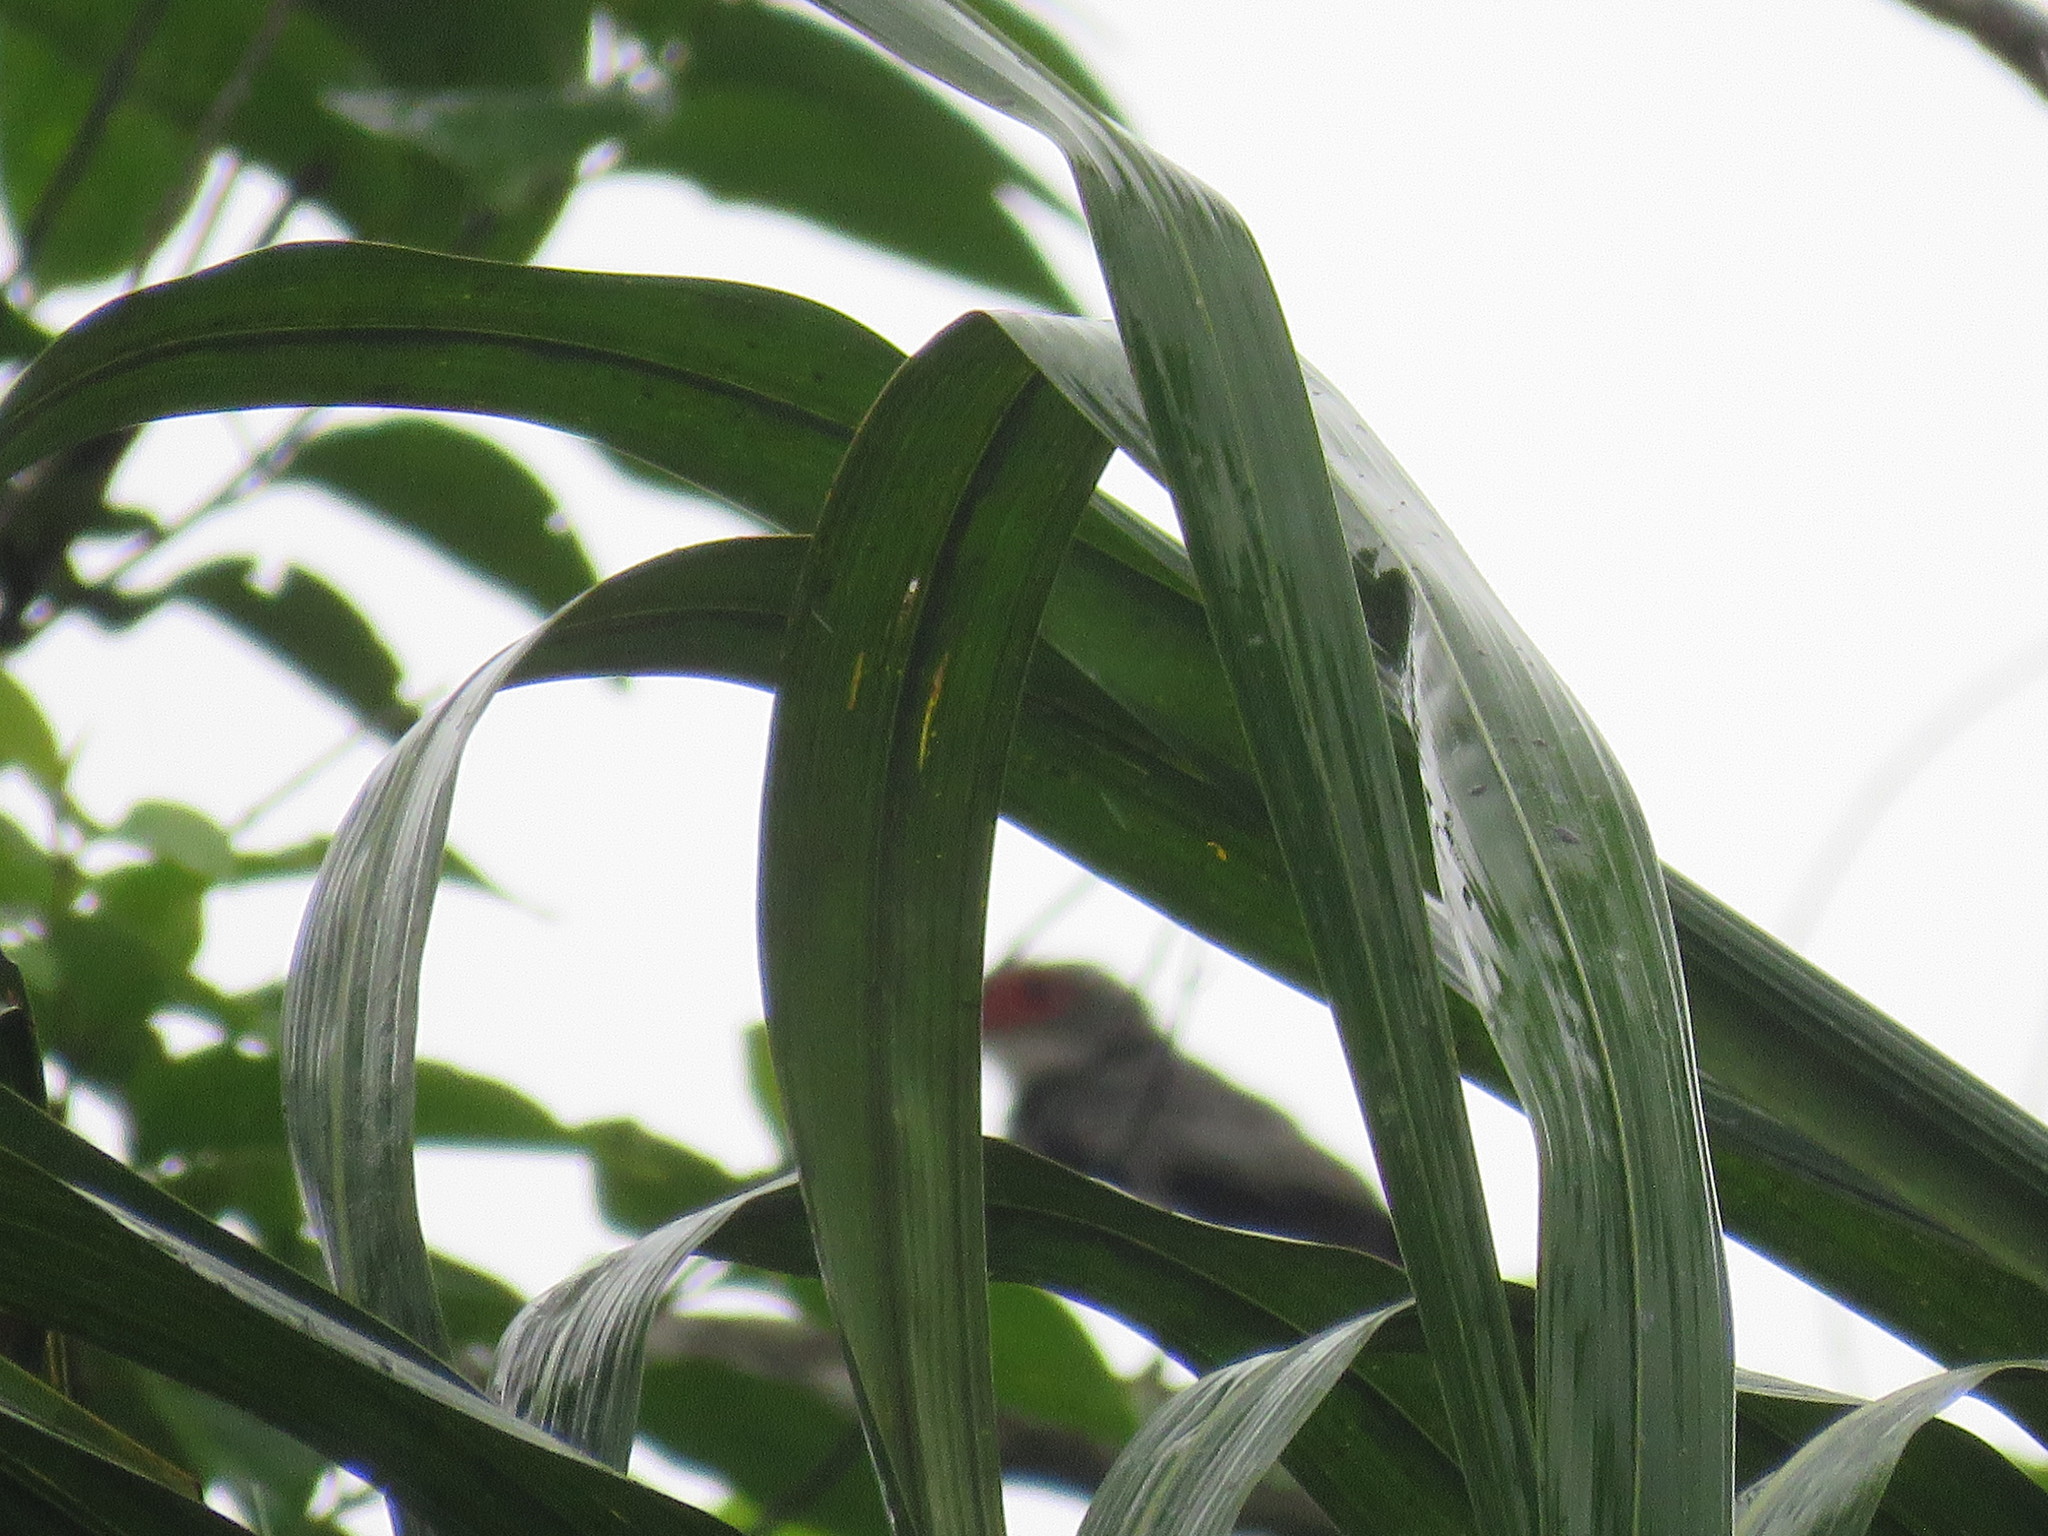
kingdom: Animalia
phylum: Chordata
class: Aves
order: Passeriformes
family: Cotingidae
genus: Tityra
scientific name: Tityra semifasciata
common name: Masked tityra
